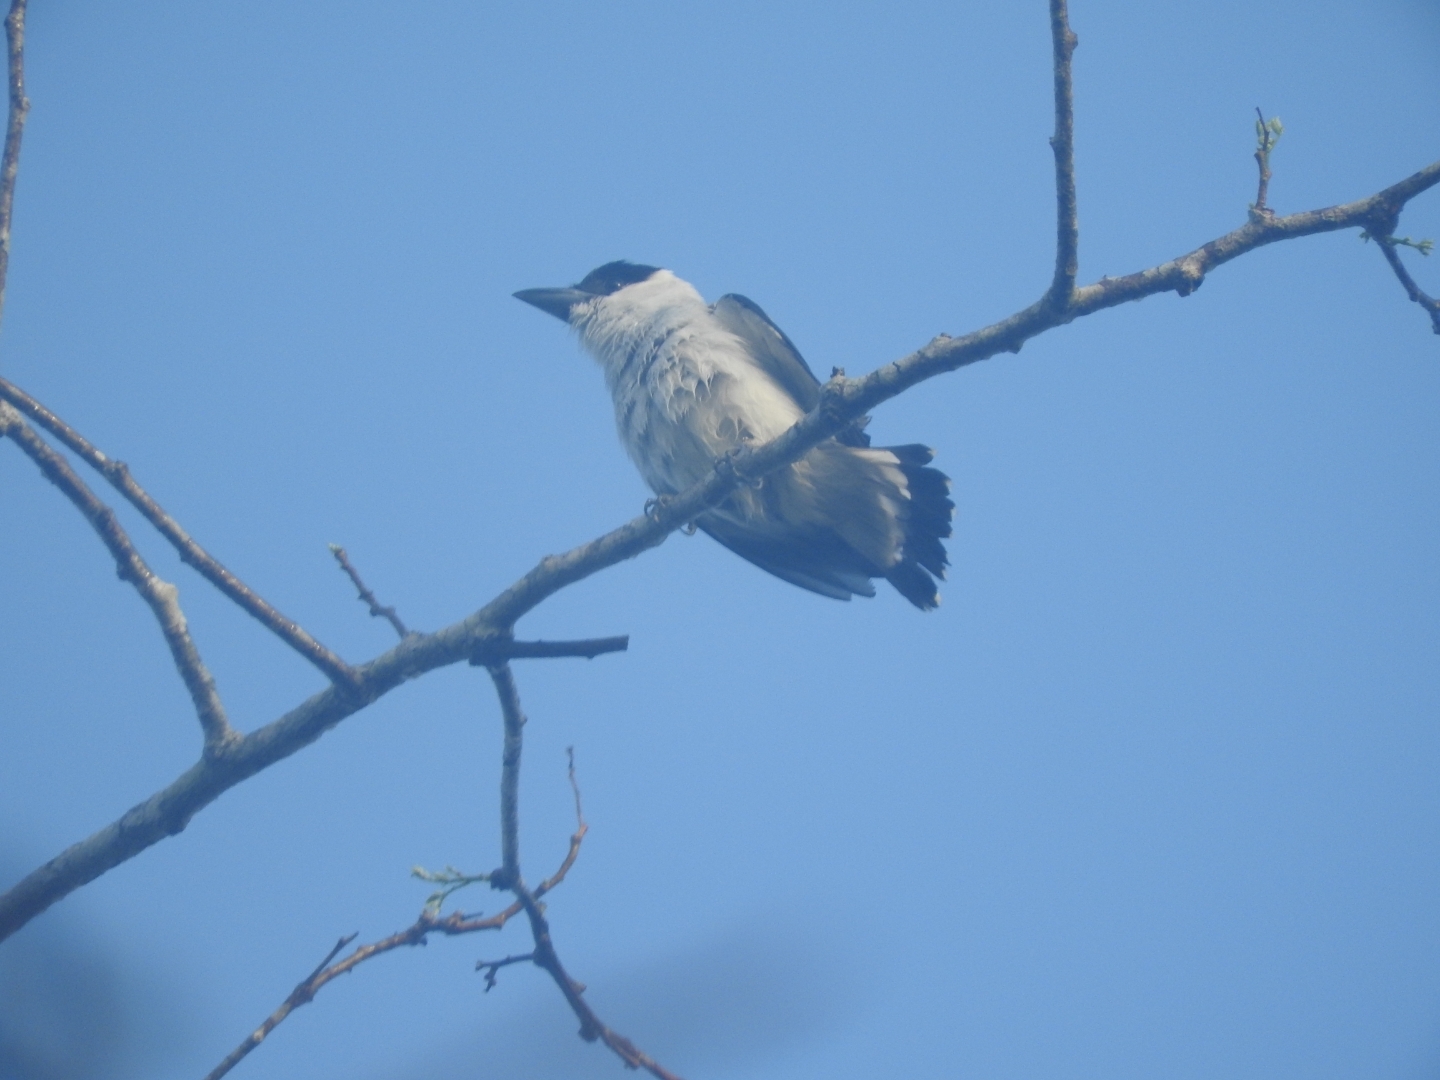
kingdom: Animalia
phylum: Chordata
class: Aves
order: Passeriformes
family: Cotingidae
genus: Tityra
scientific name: Tityra inquisitor
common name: Black-crowned tityra
